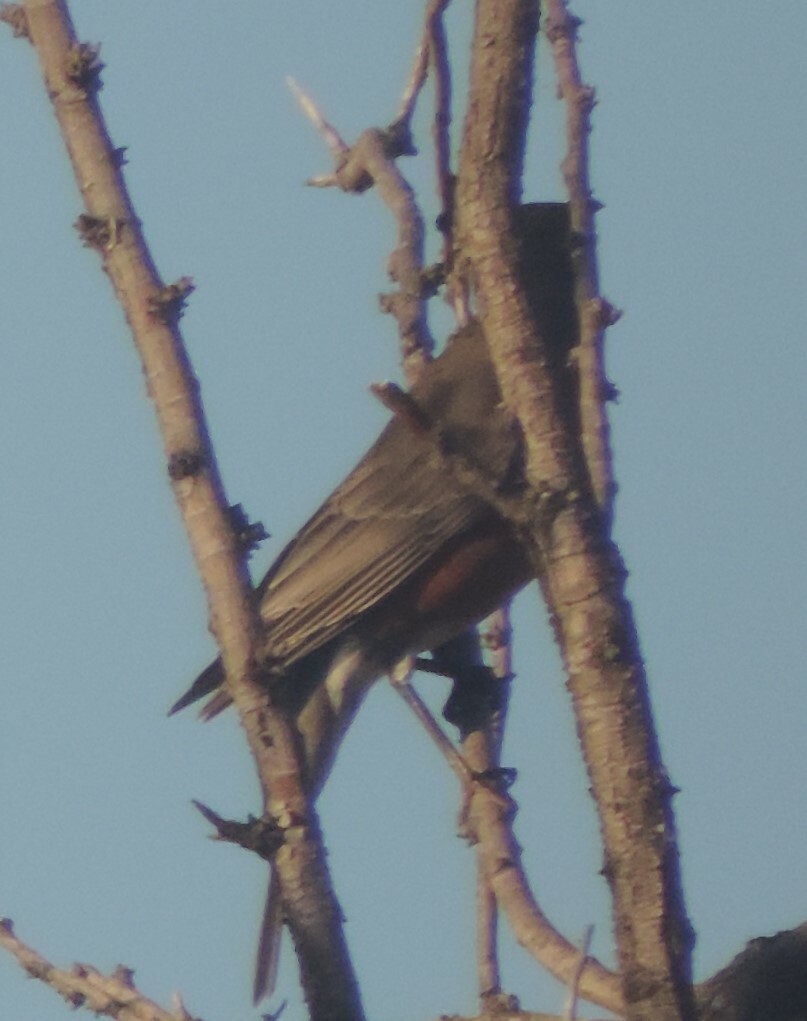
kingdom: Animalia
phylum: Chordata
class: Aves
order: Passeriformes
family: Turdidae
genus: Turdus
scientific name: Turdus migratorius
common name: American robin
